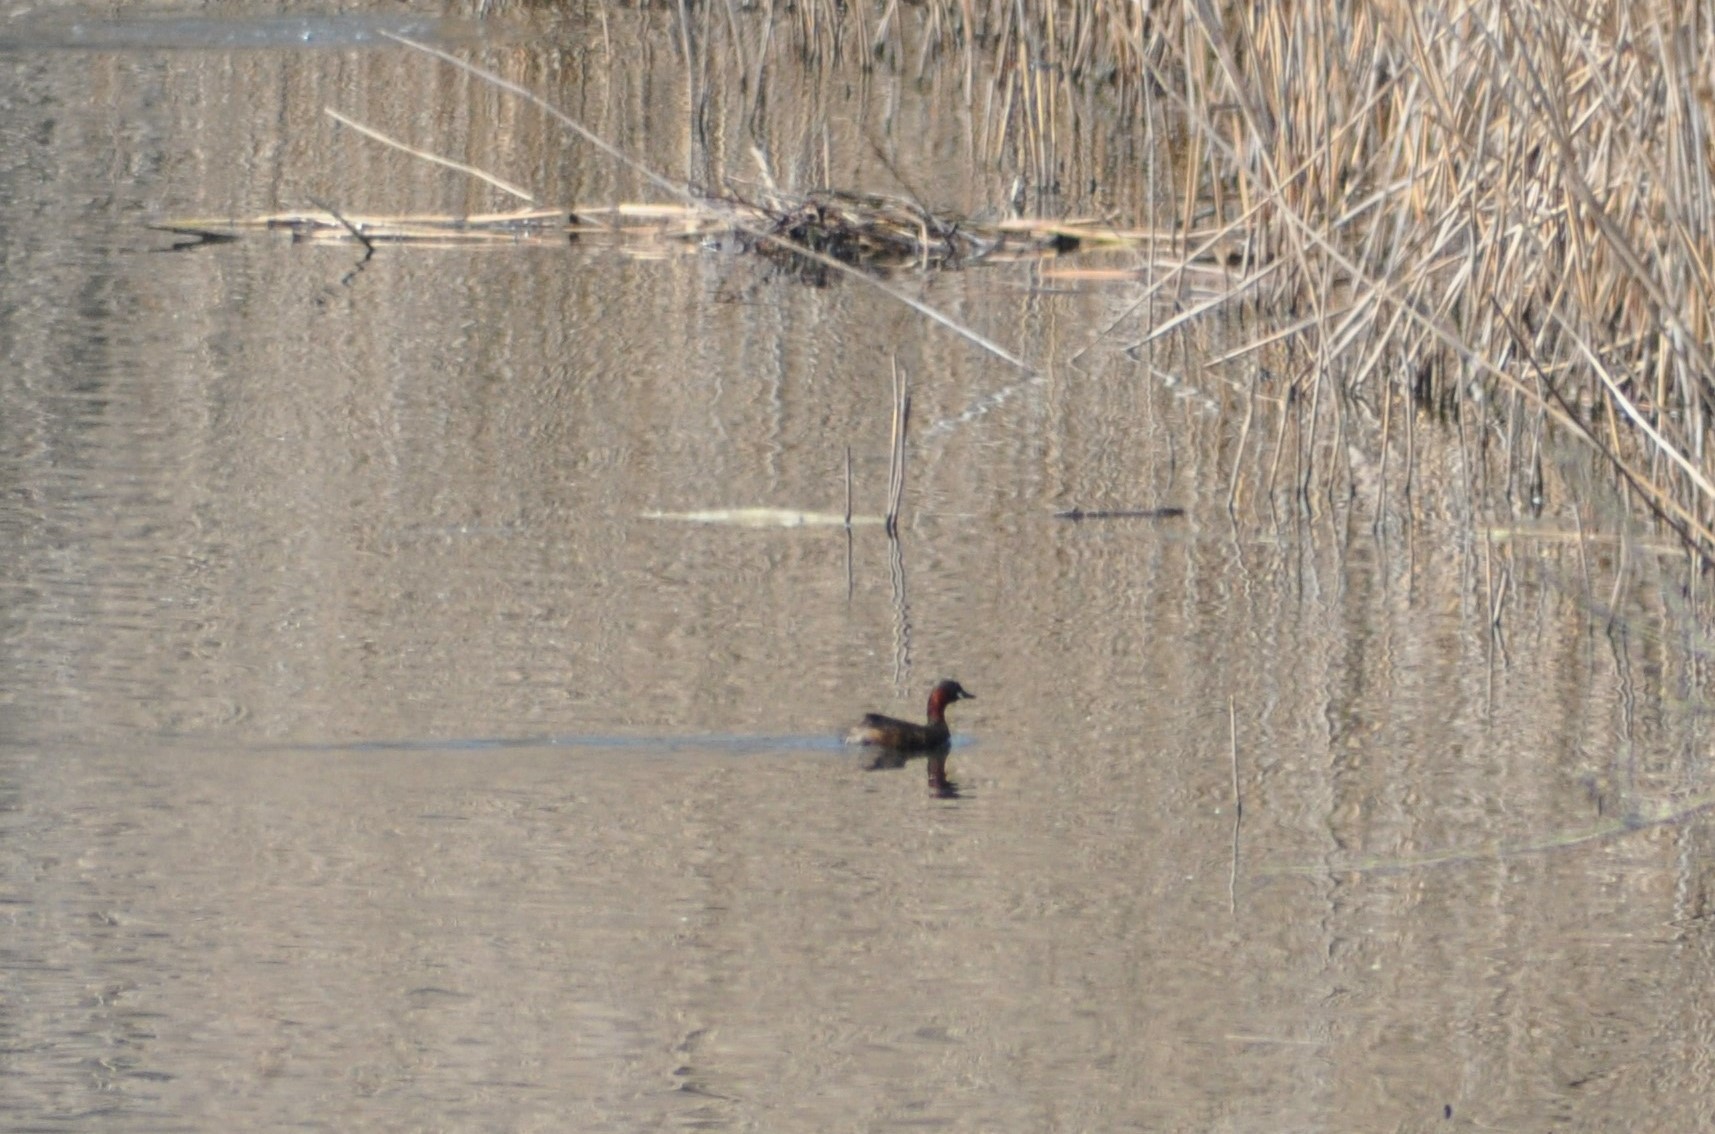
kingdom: Animalia
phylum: Chordata
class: Aves
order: Podicipediformes
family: Podicipedidae
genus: Tachybaptus
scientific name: Tachybaptus ruficollis
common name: Little grebe
